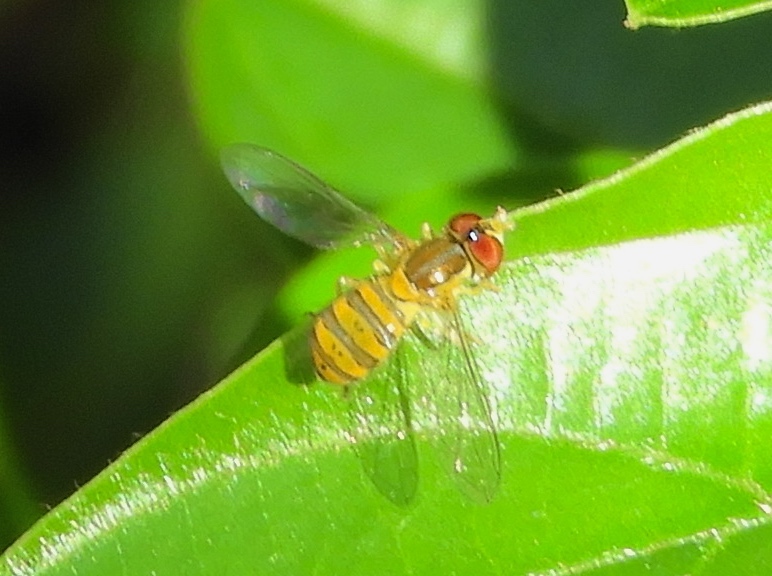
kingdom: Animalia
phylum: Arthropoda
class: Insecta
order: Diptera
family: Syrphidae
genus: Toxomerus
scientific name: Toxomerus
